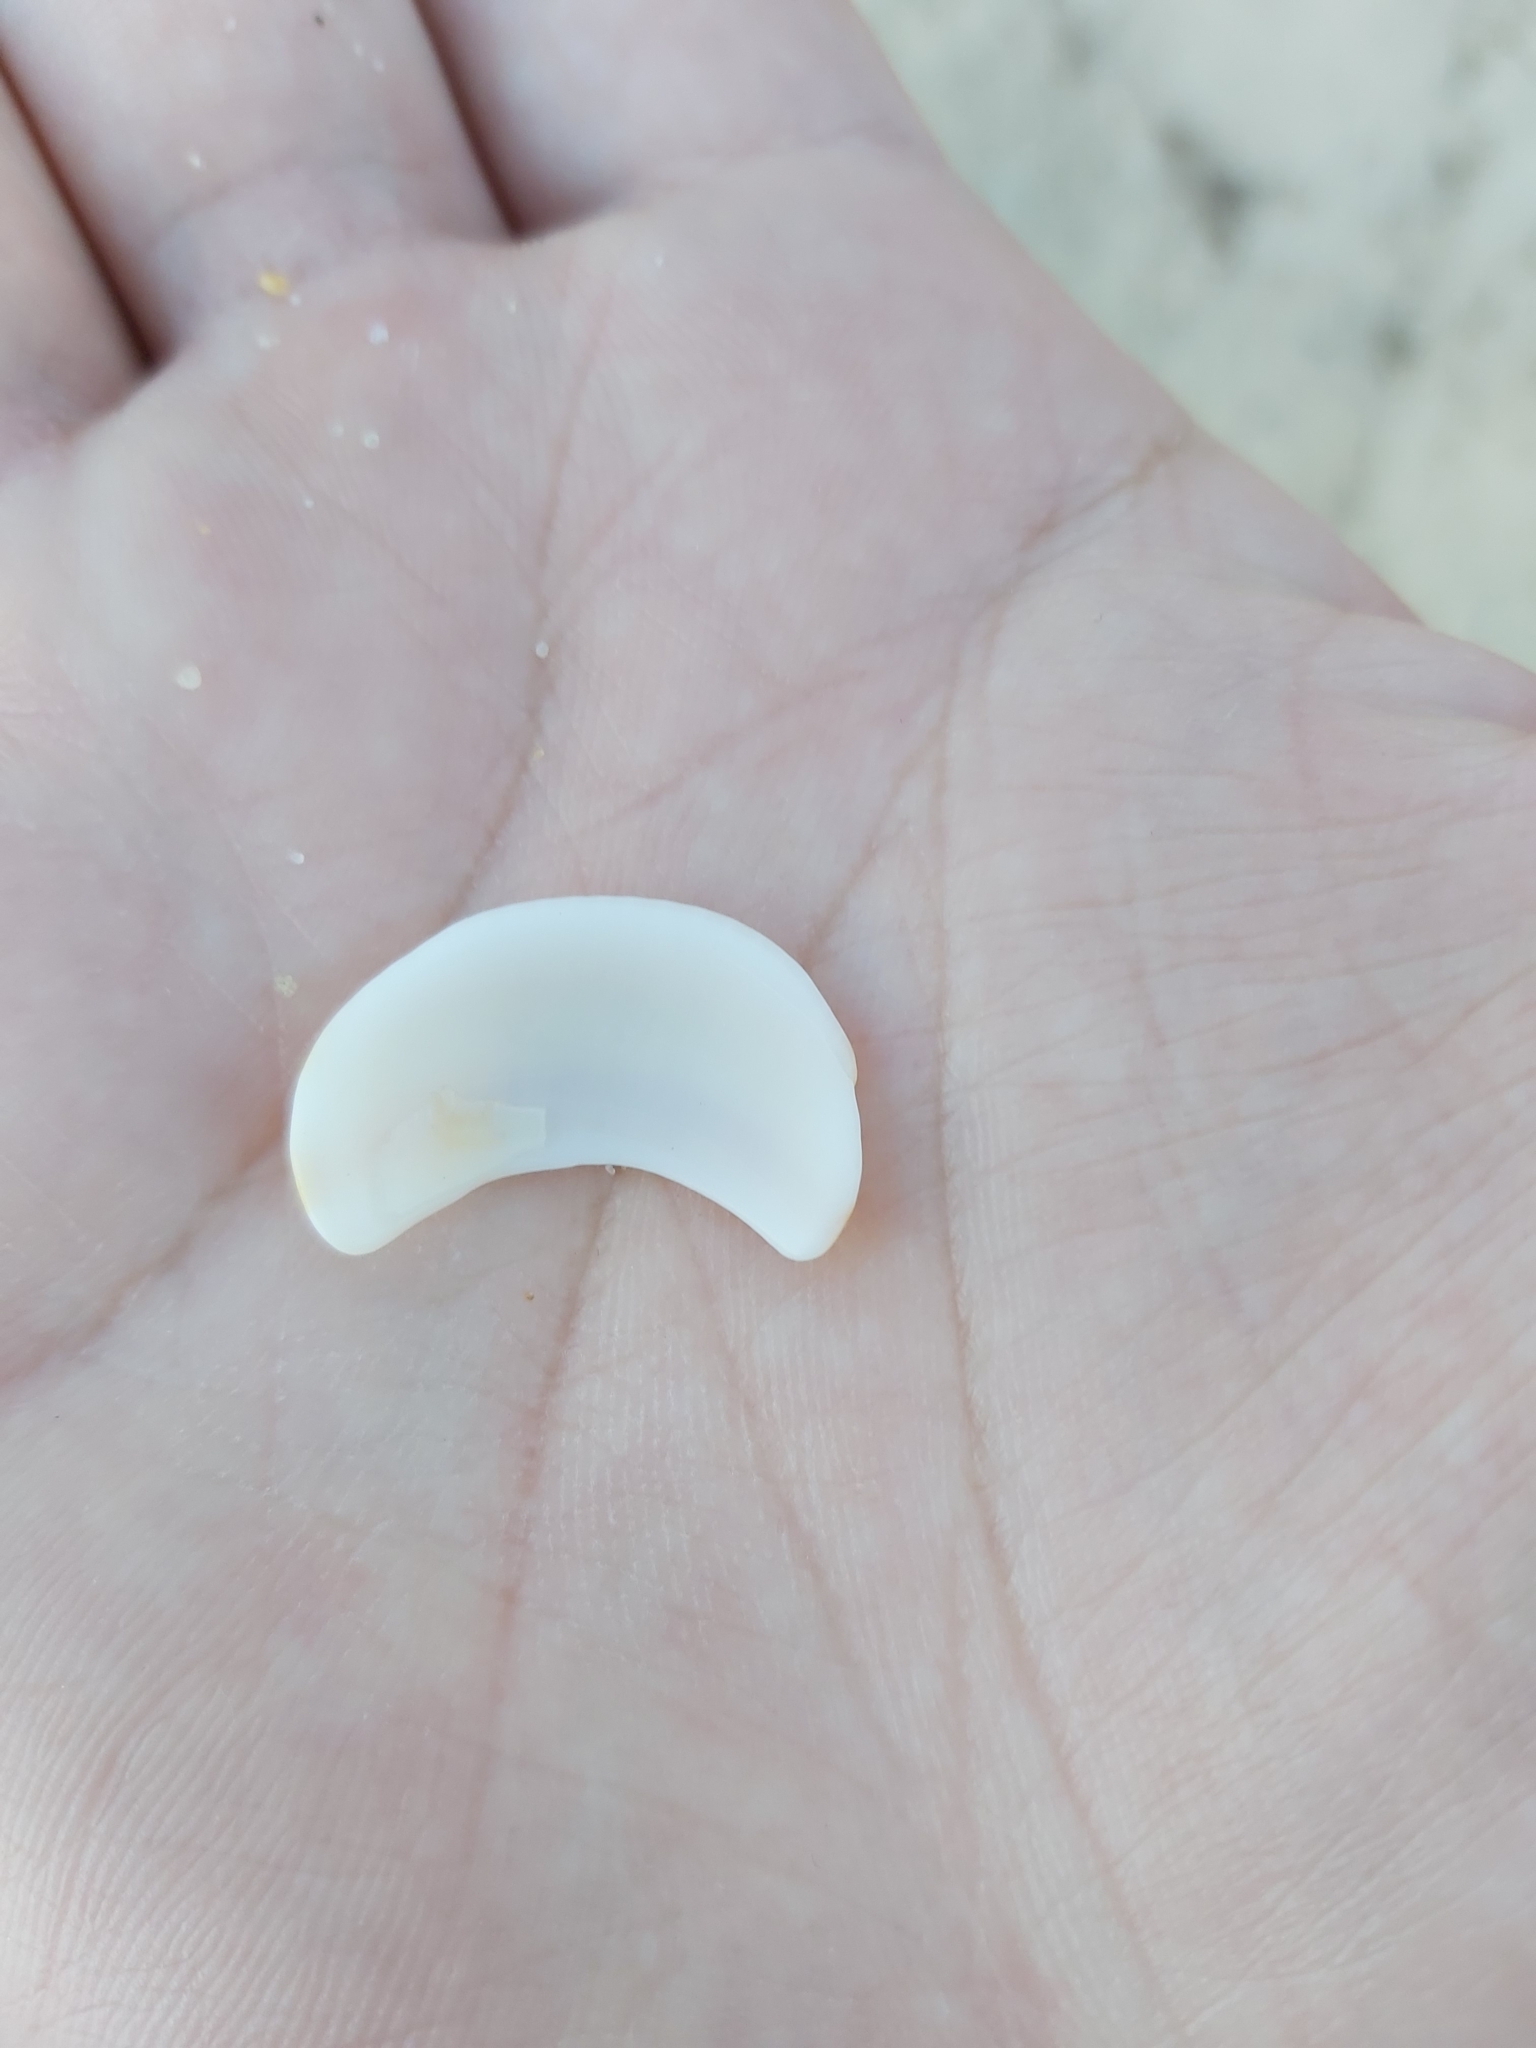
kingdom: Animalia
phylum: Mollusca
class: Bivalvia
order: Arcida
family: Glycymerididae
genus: Glycymeris
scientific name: Glycymeris grayana
